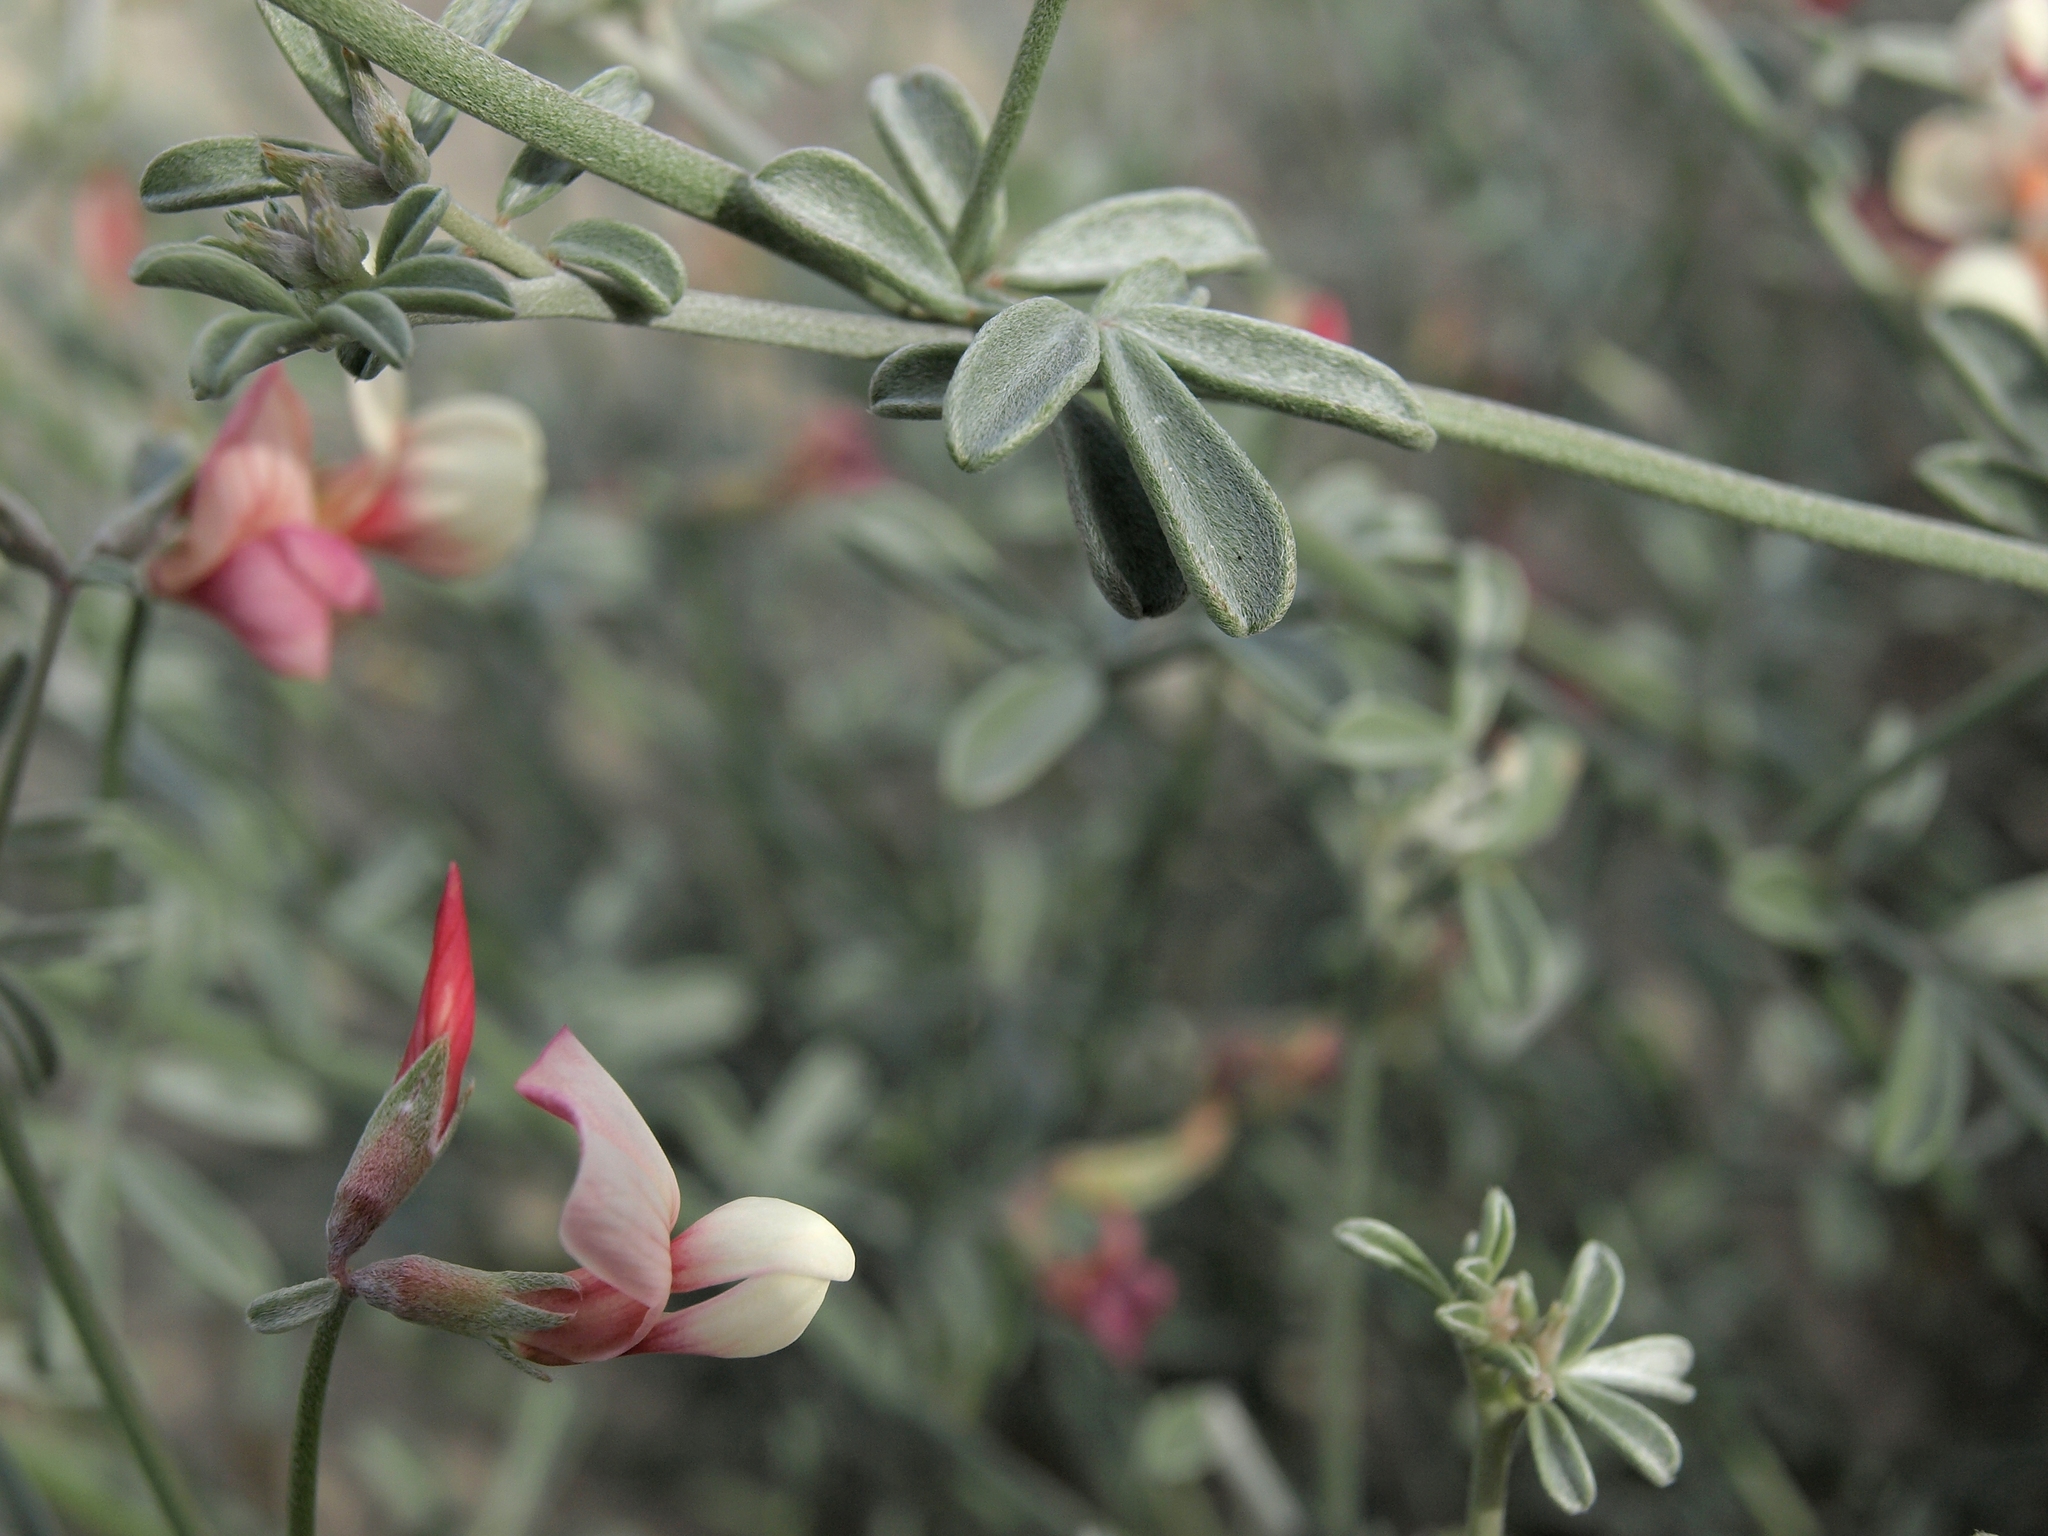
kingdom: Plantae
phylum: Tracheophyta
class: Magnoliopsida
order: Fabales
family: Fabaceae
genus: Acmispon
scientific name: Acmispon niveus
